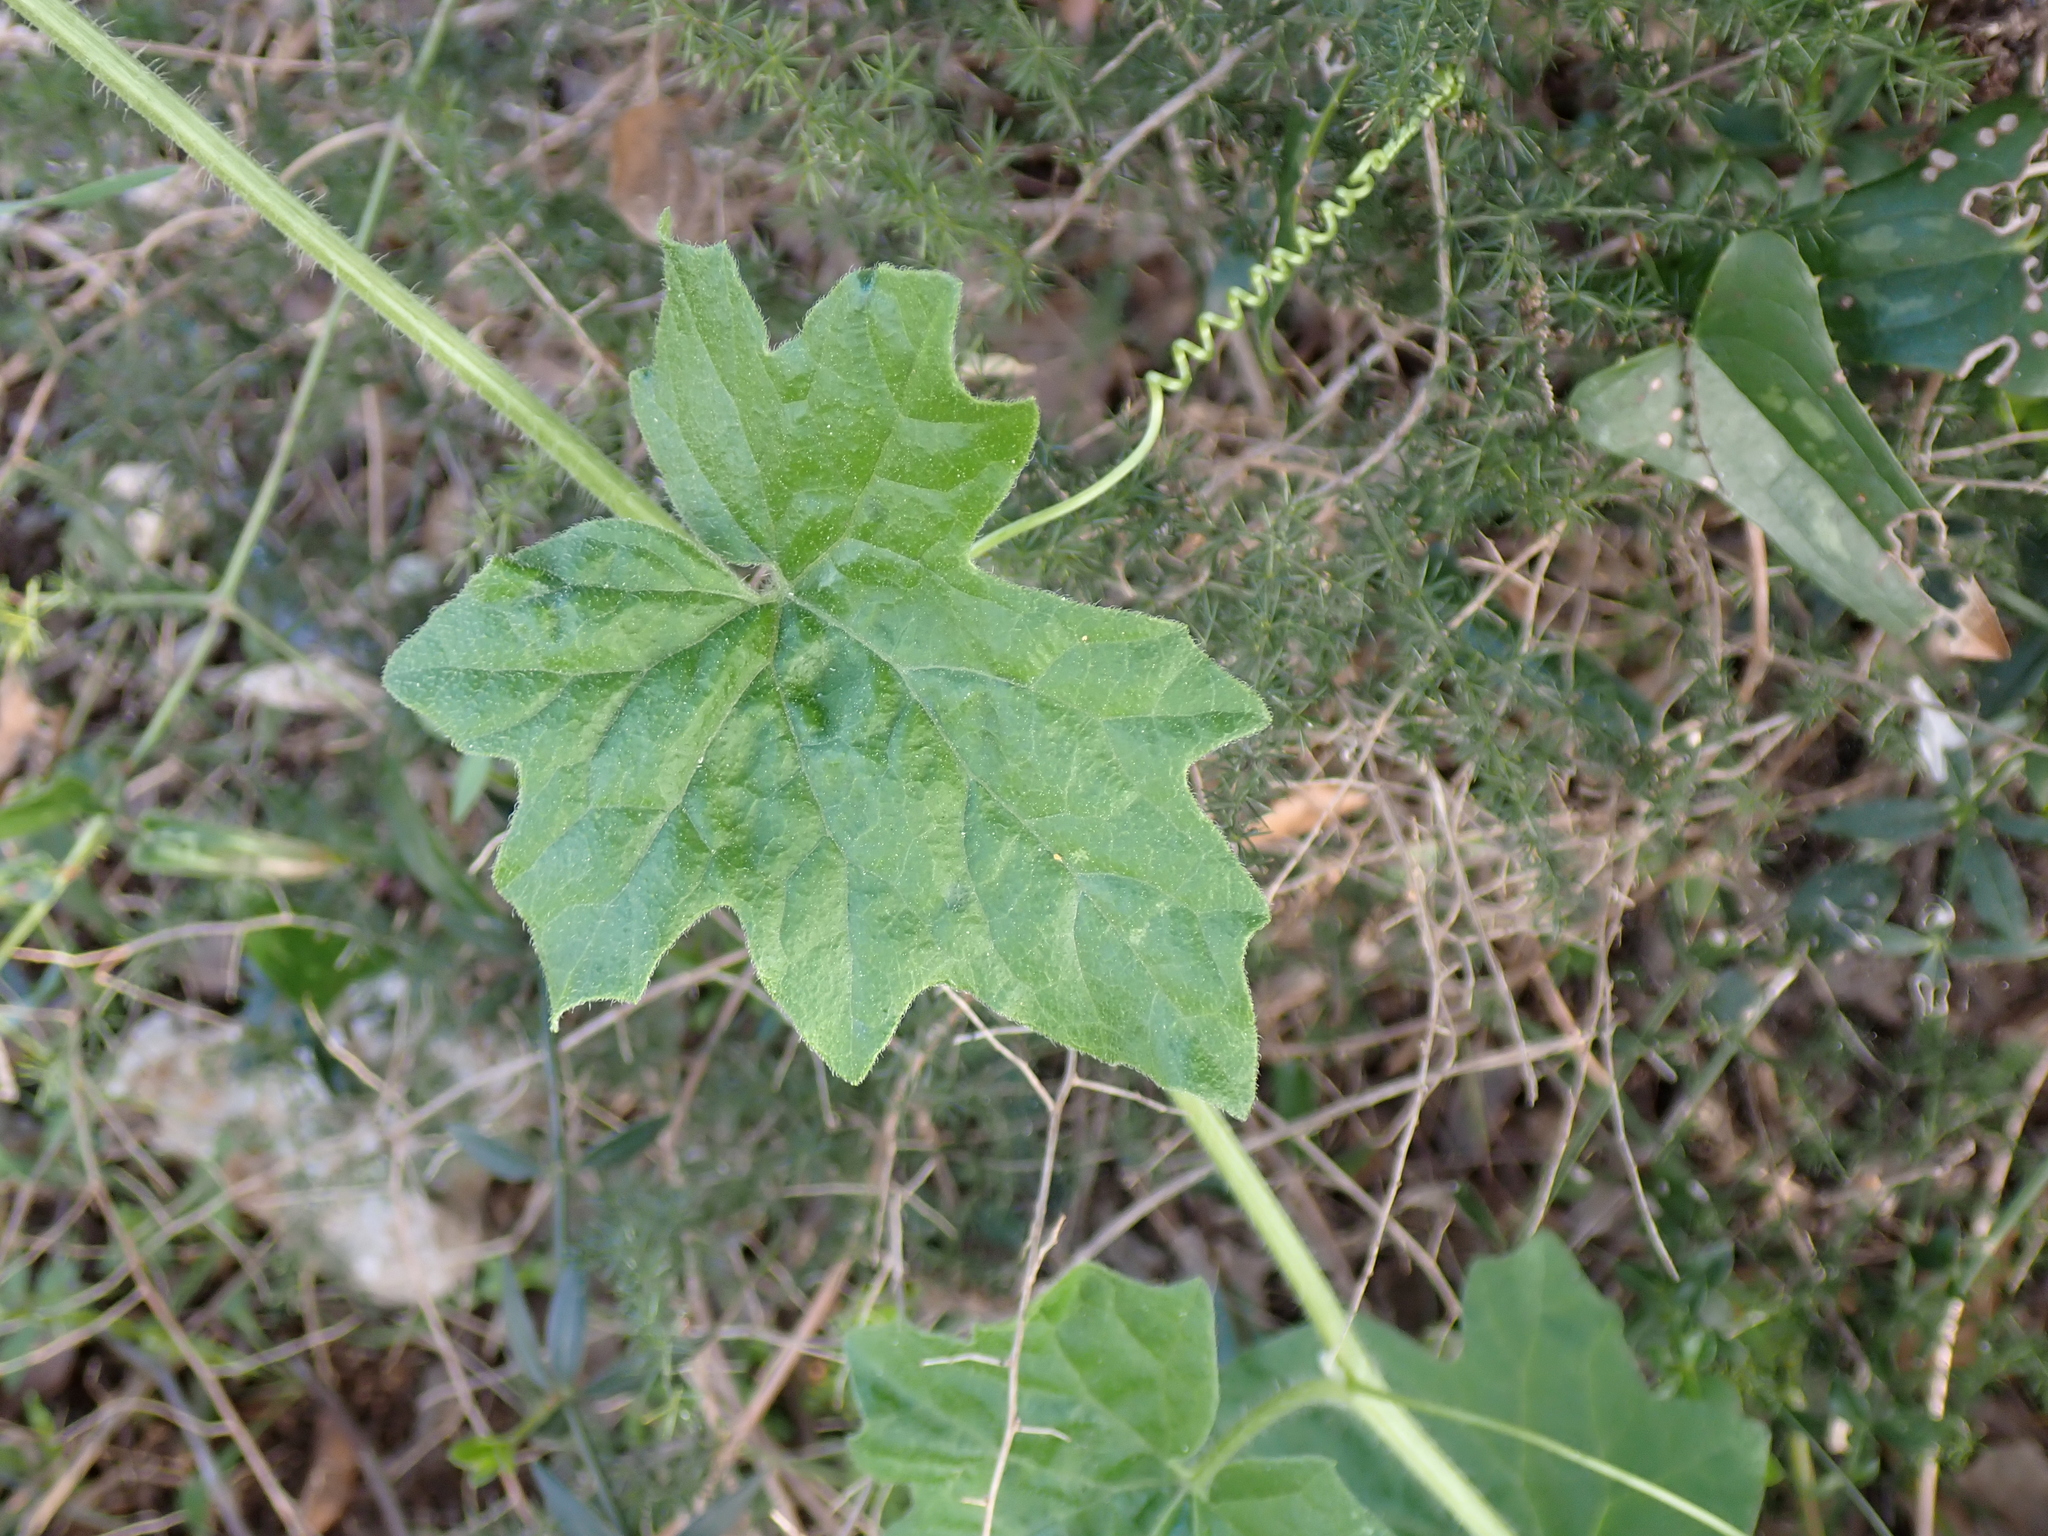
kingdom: Plantae
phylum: Tracheophyta
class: Magnoliopsida
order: Cucurbitales
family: Cucurbitaceae
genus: Bryonia
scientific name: Bryonia dioica
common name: White bryony
